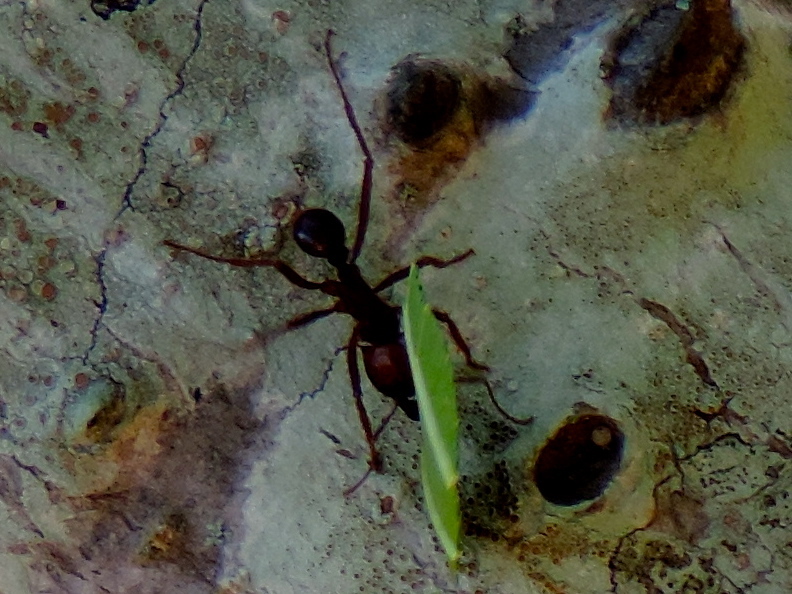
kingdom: Animalia
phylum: Arthropoda
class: Insecta
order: Hymenoptera
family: Formicidae
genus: Atta
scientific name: Atta mexicana
